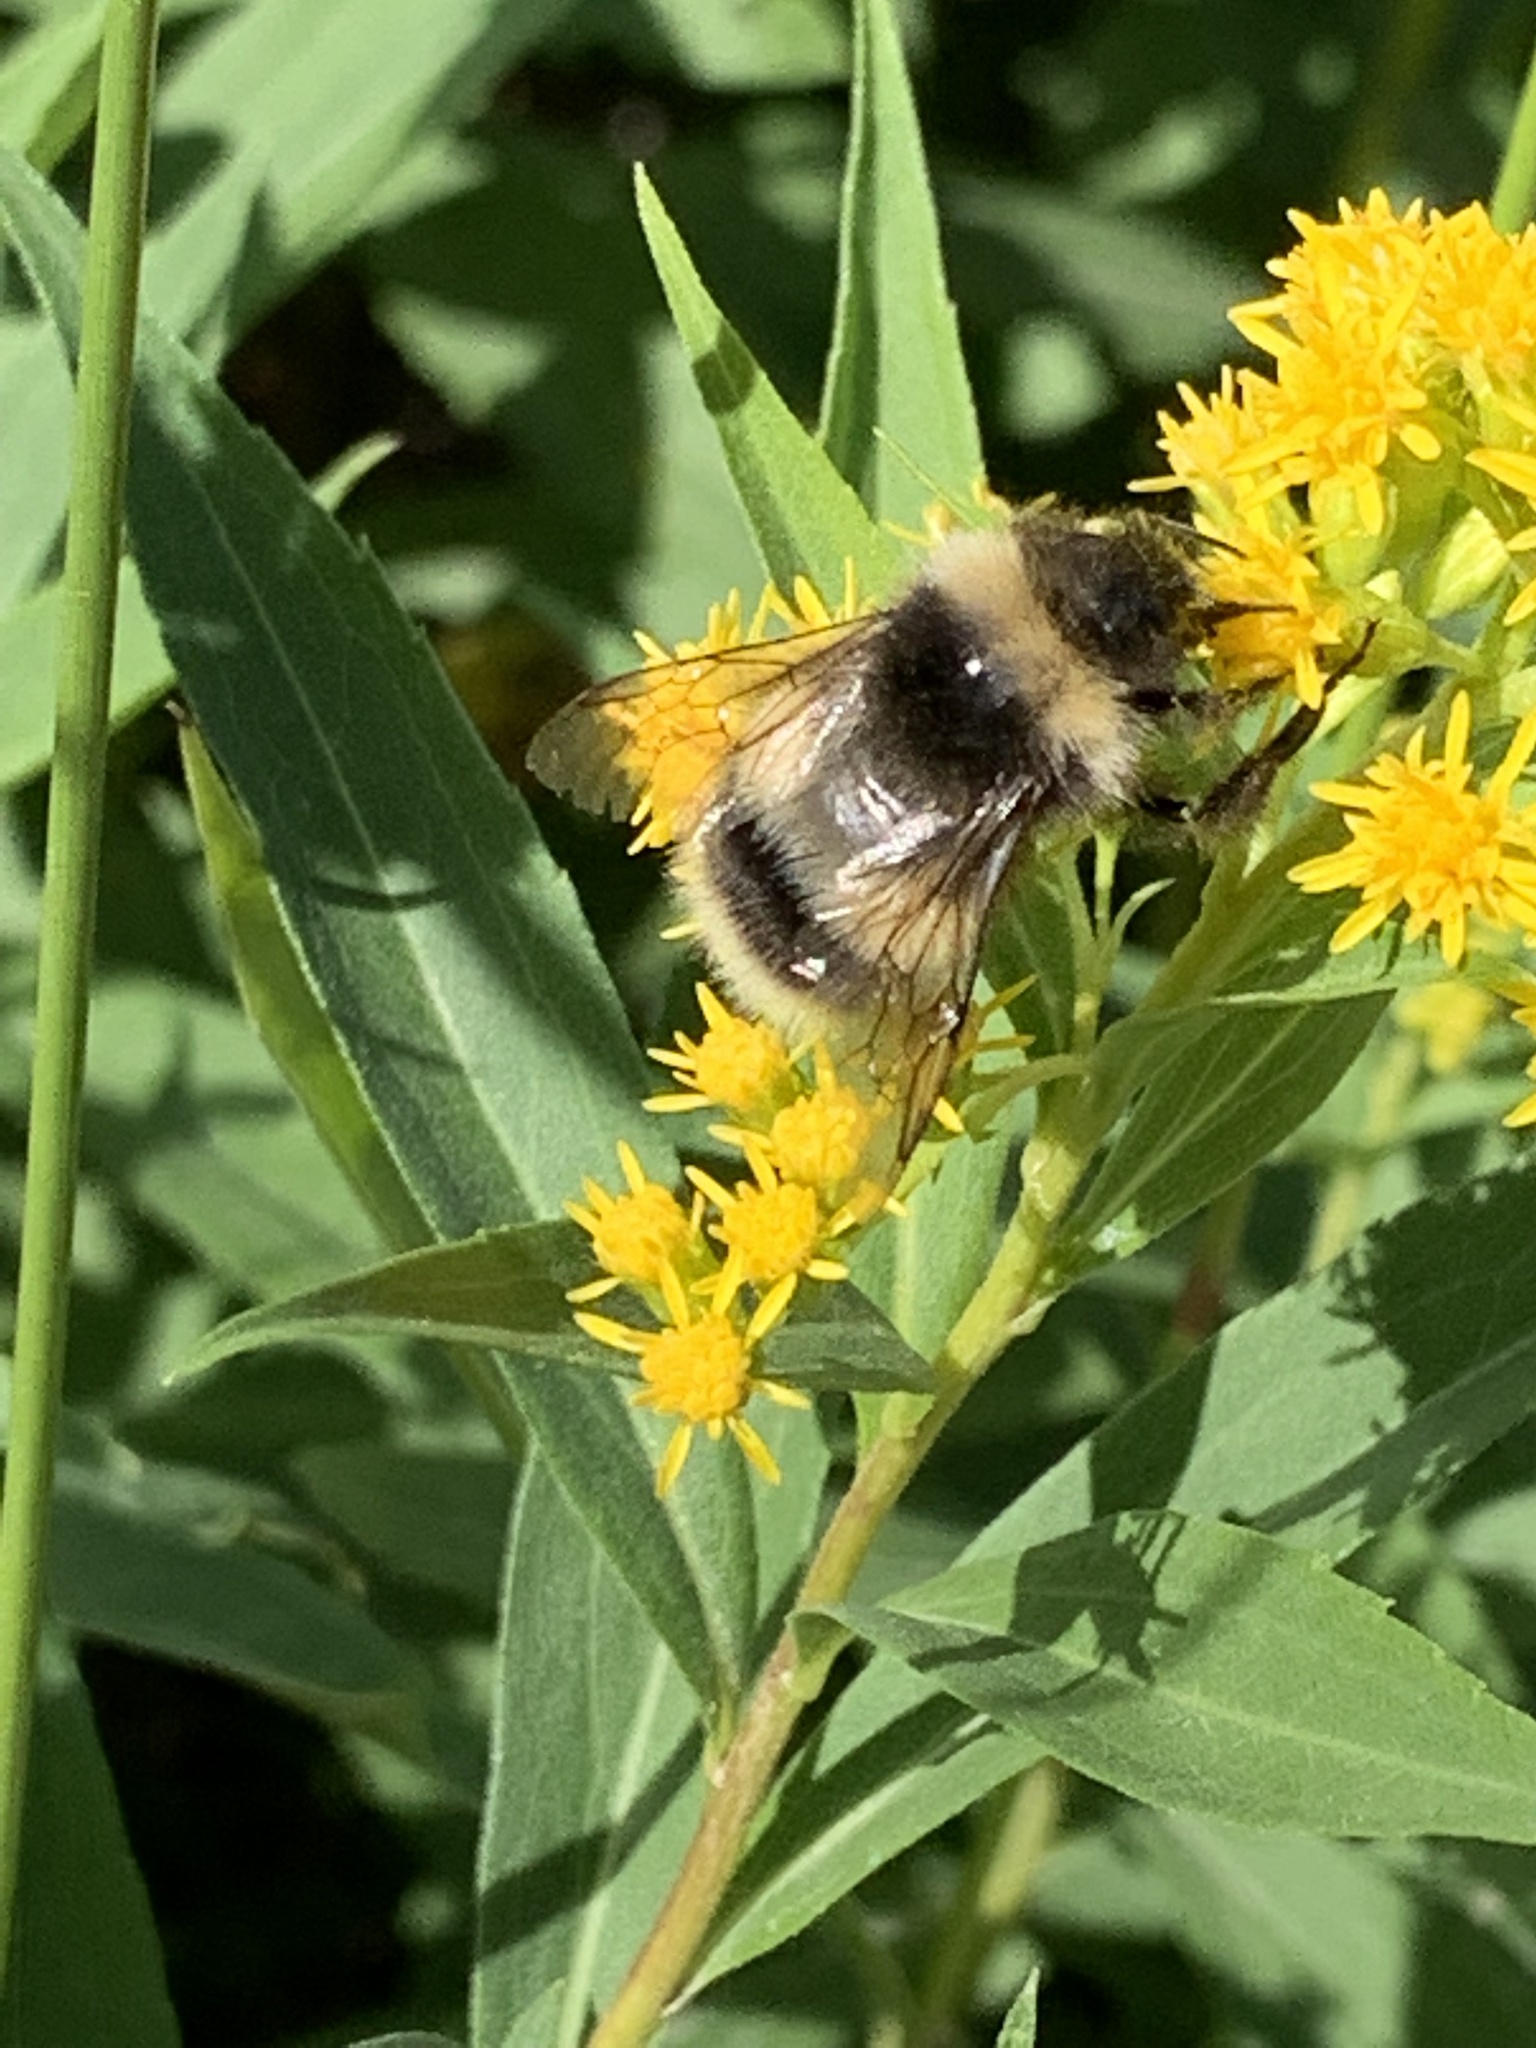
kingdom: Animalia
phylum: Arthropoda
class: Insecta
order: Hymenoptera
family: Apidae
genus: Bombus
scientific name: Bombus cryptarum
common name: Cryptic bumblebee
